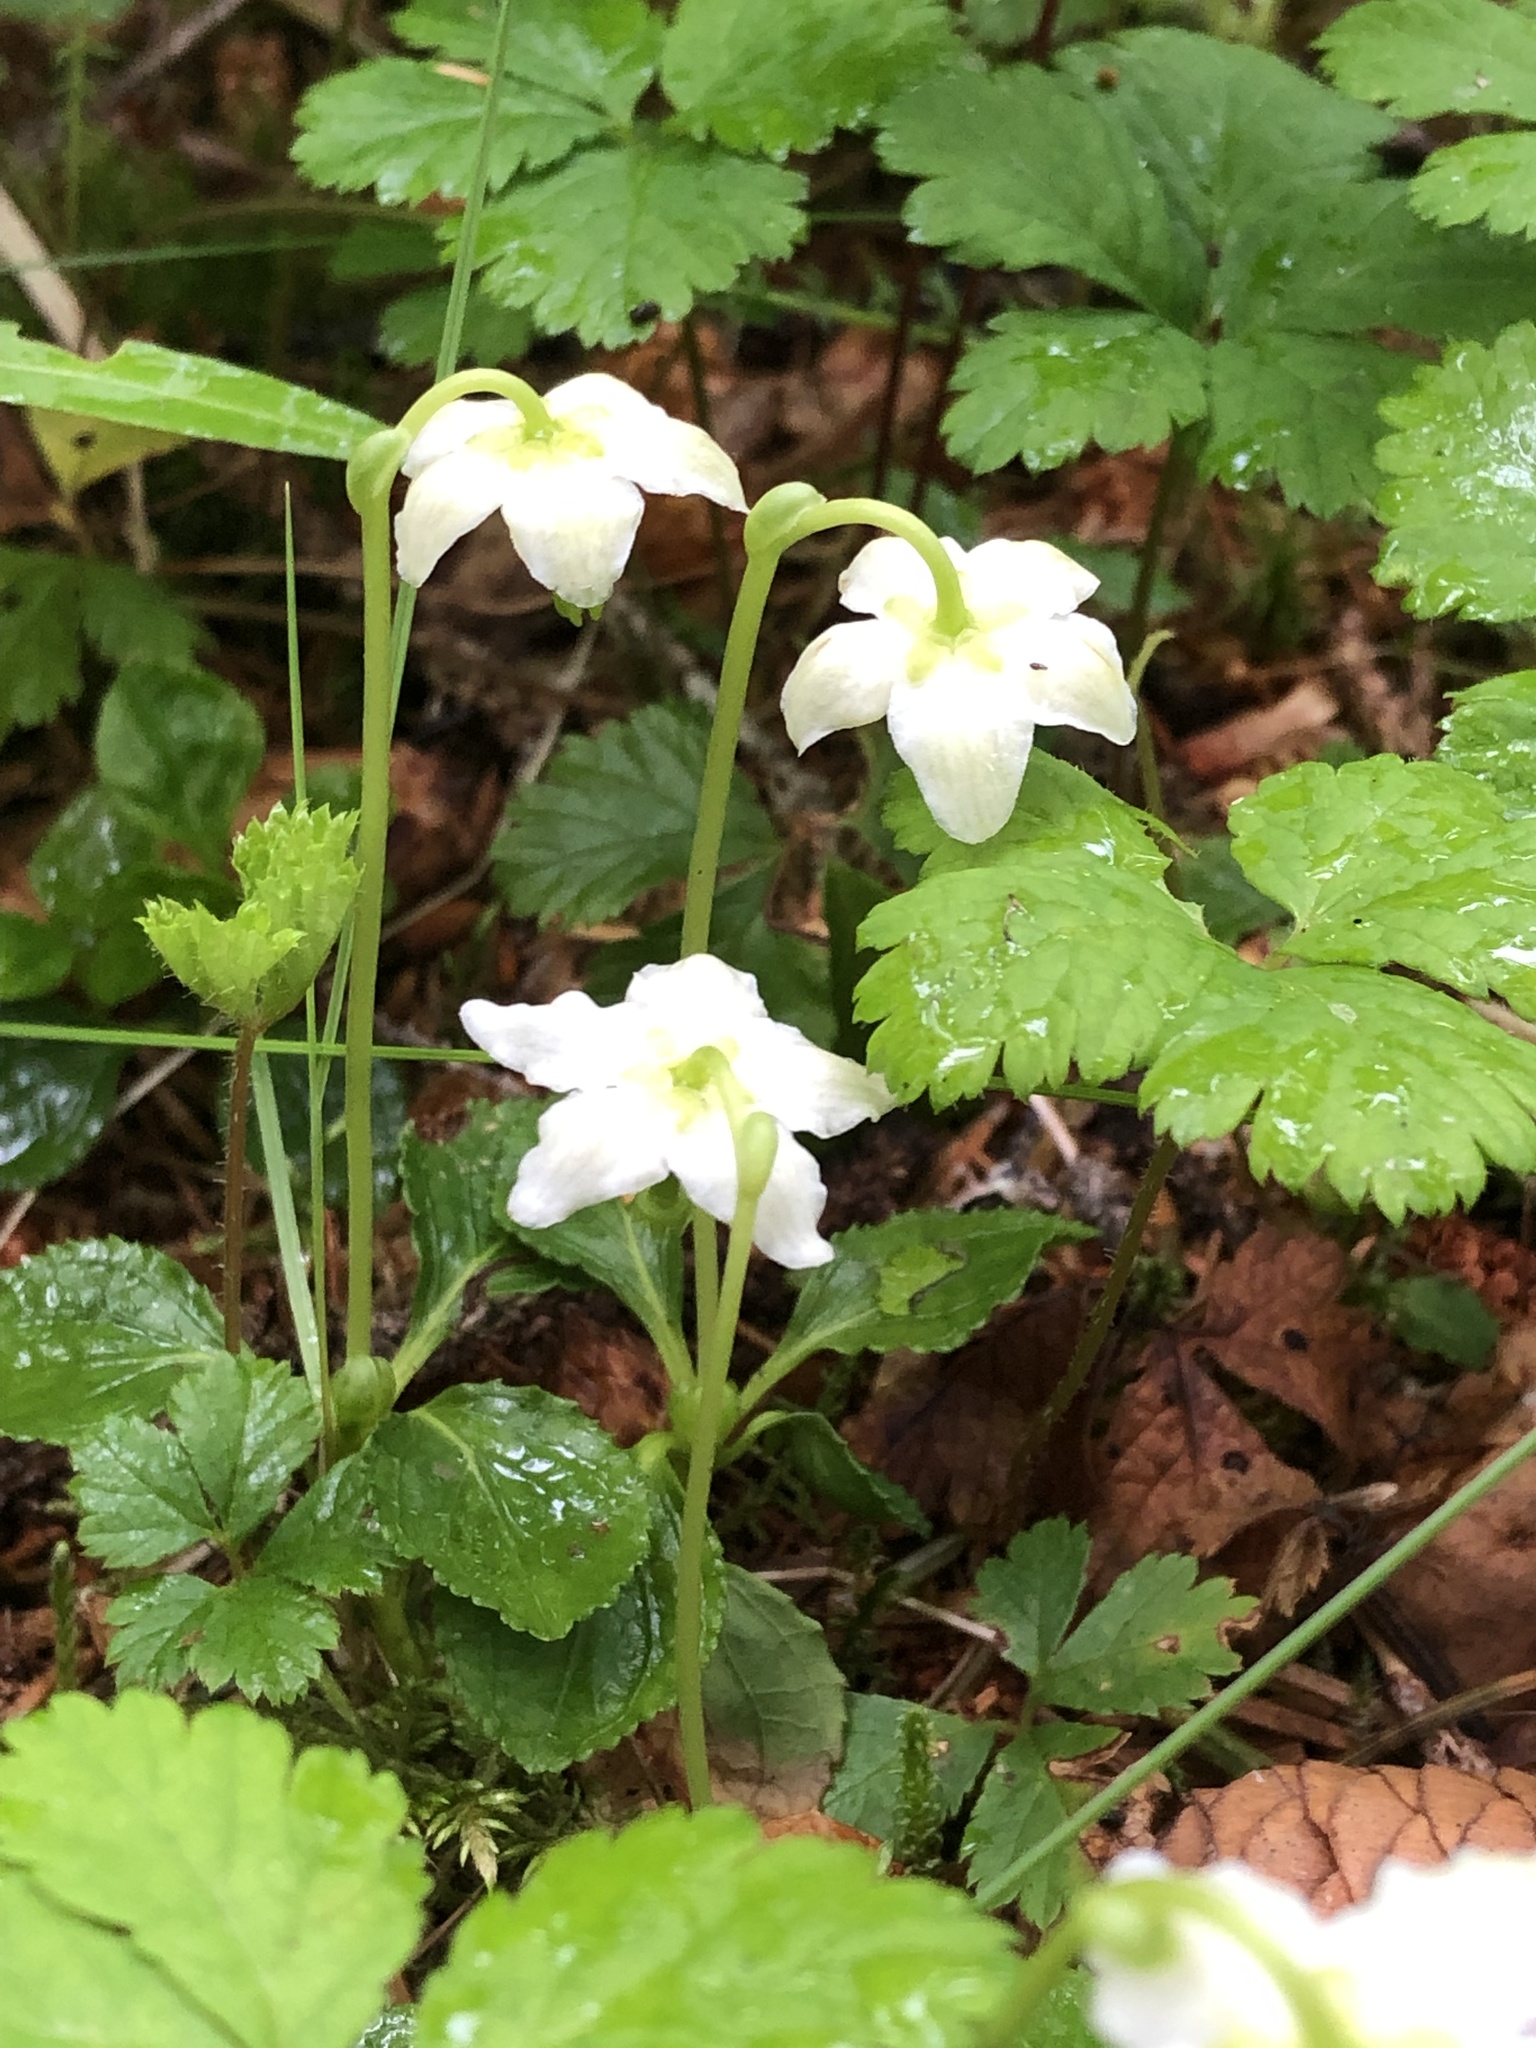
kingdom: Plantae
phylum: Tracheophyta
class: Magnoliopsida
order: Ericales
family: Ericaceae
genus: Moneses
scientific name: Moneses uniflora
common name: One-flowered wintergreen
